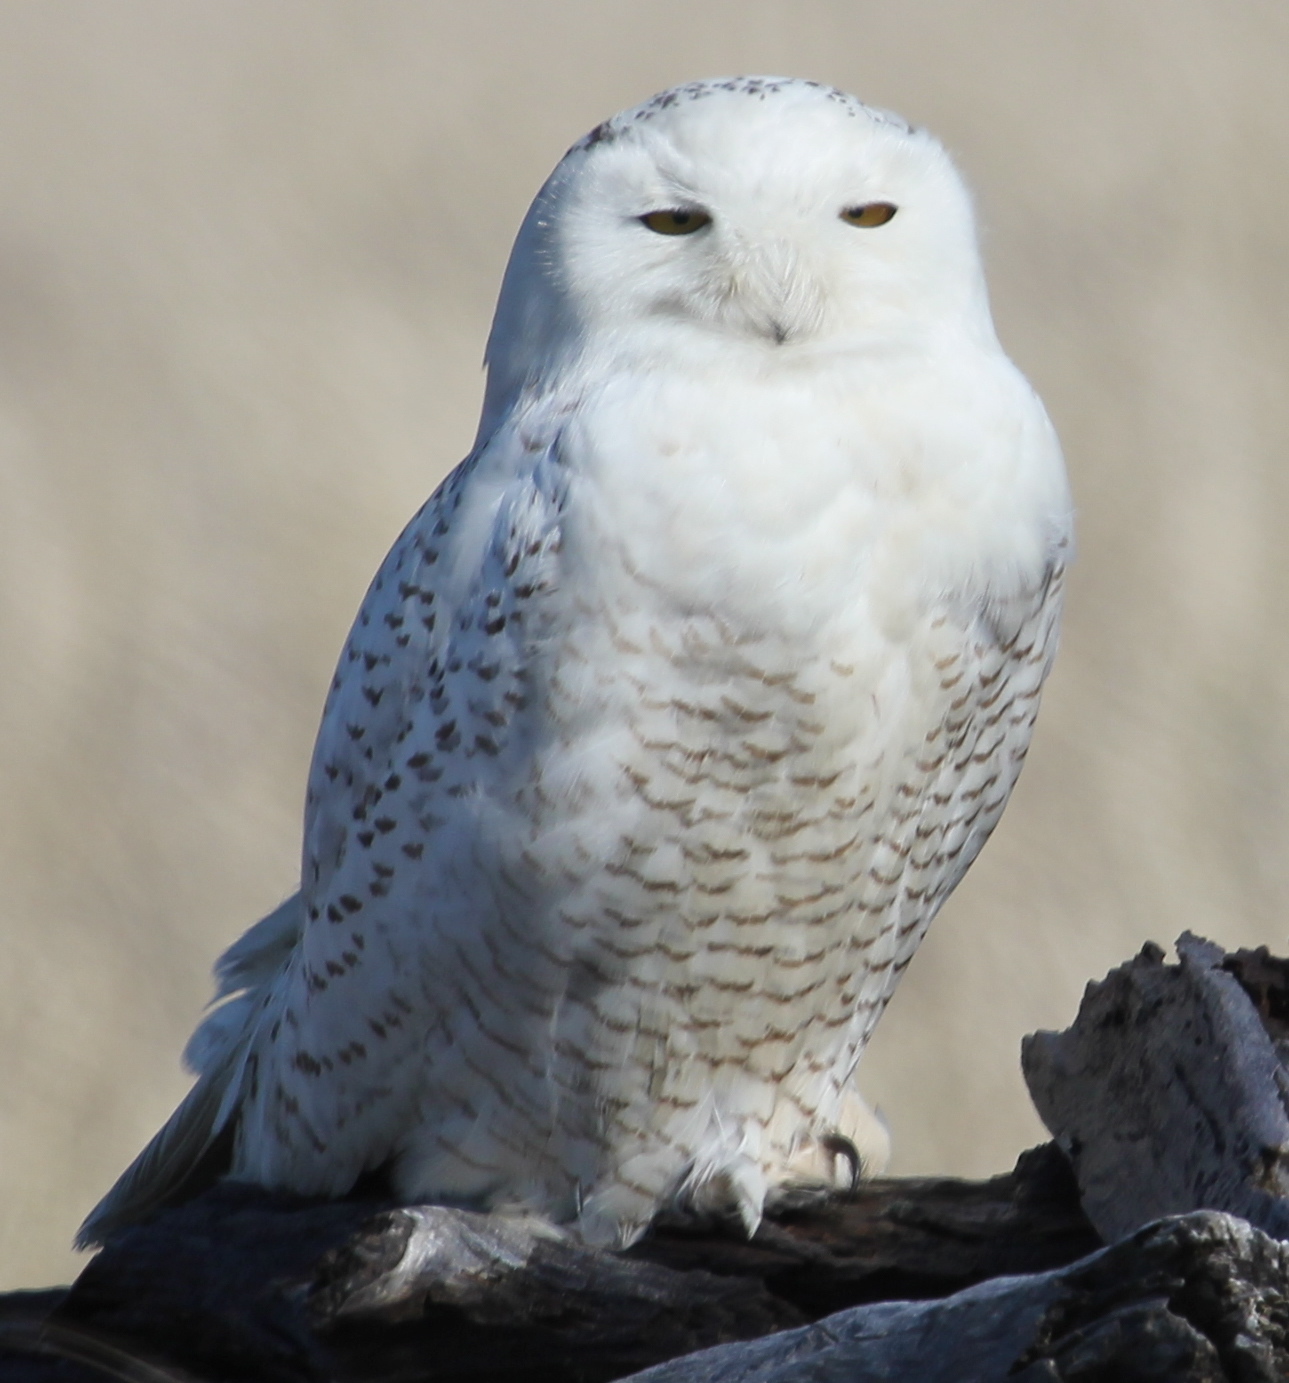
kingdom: Animalia
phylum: Chordata
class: Aves
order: Strigiformes
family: Strigidae
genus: Bubo
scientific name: Bubo scandiacus
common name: Snowy owl
